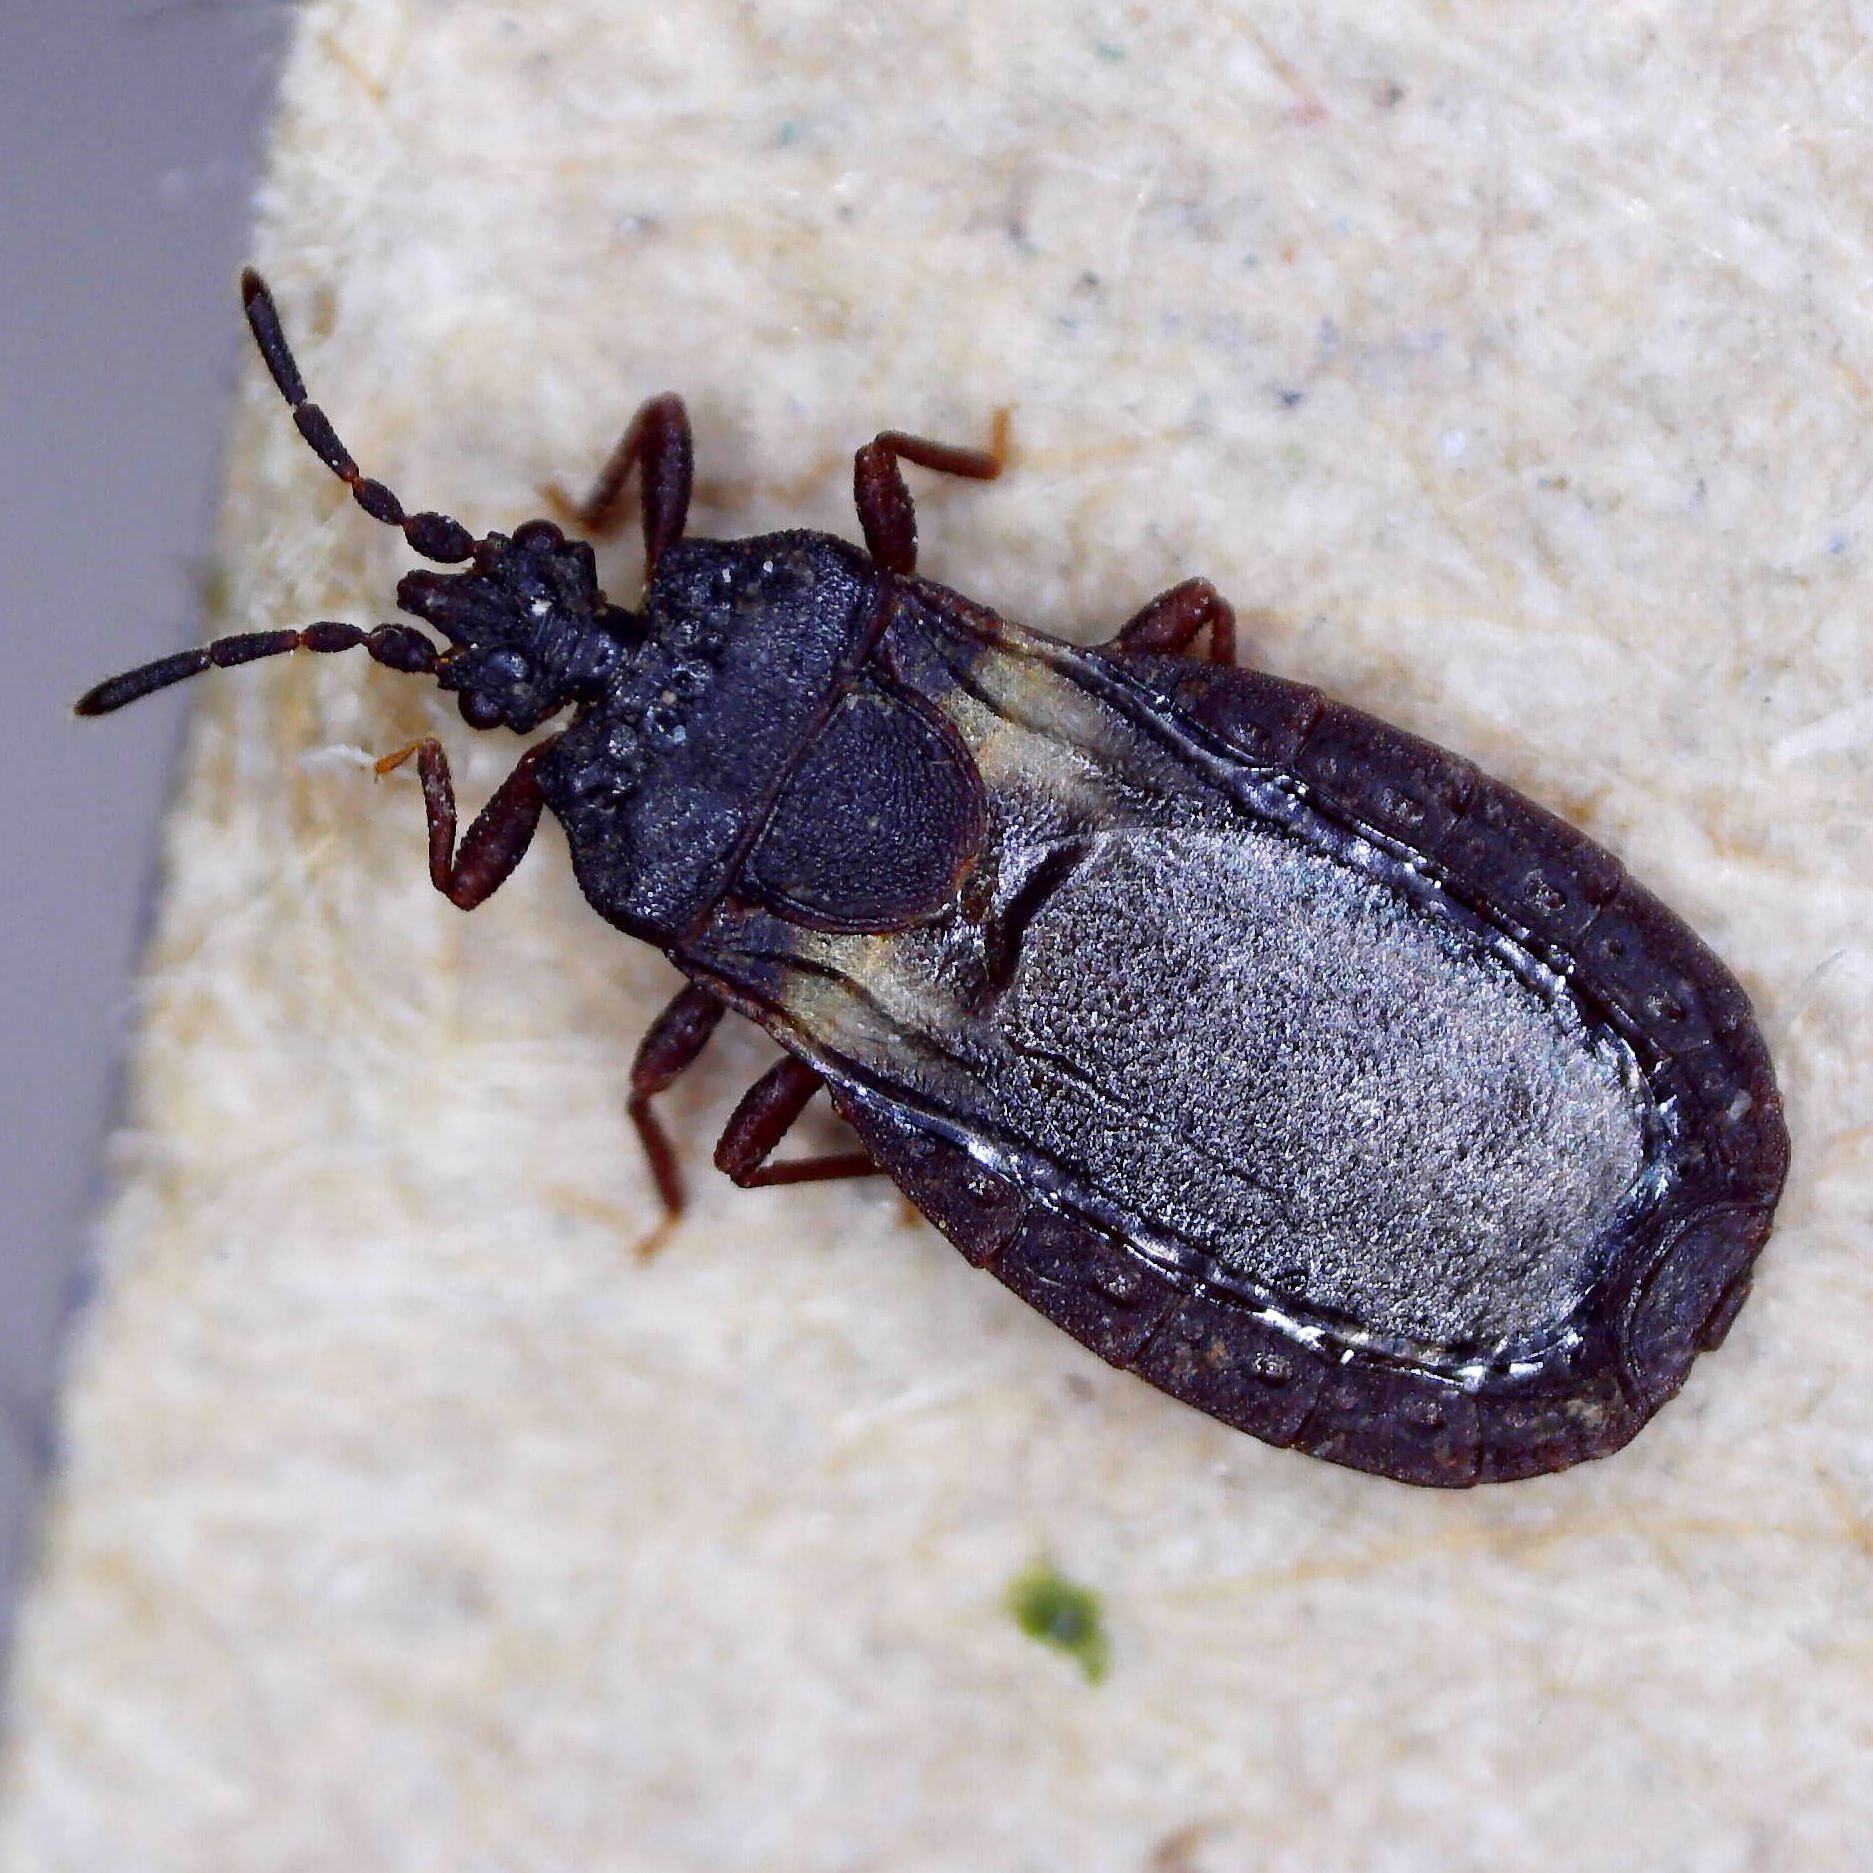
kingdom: Animalia
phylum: Arthropoda
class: Insecta
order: Hemiptera
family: Aradidae
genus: Aneurus
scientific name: Aneurus avenius
